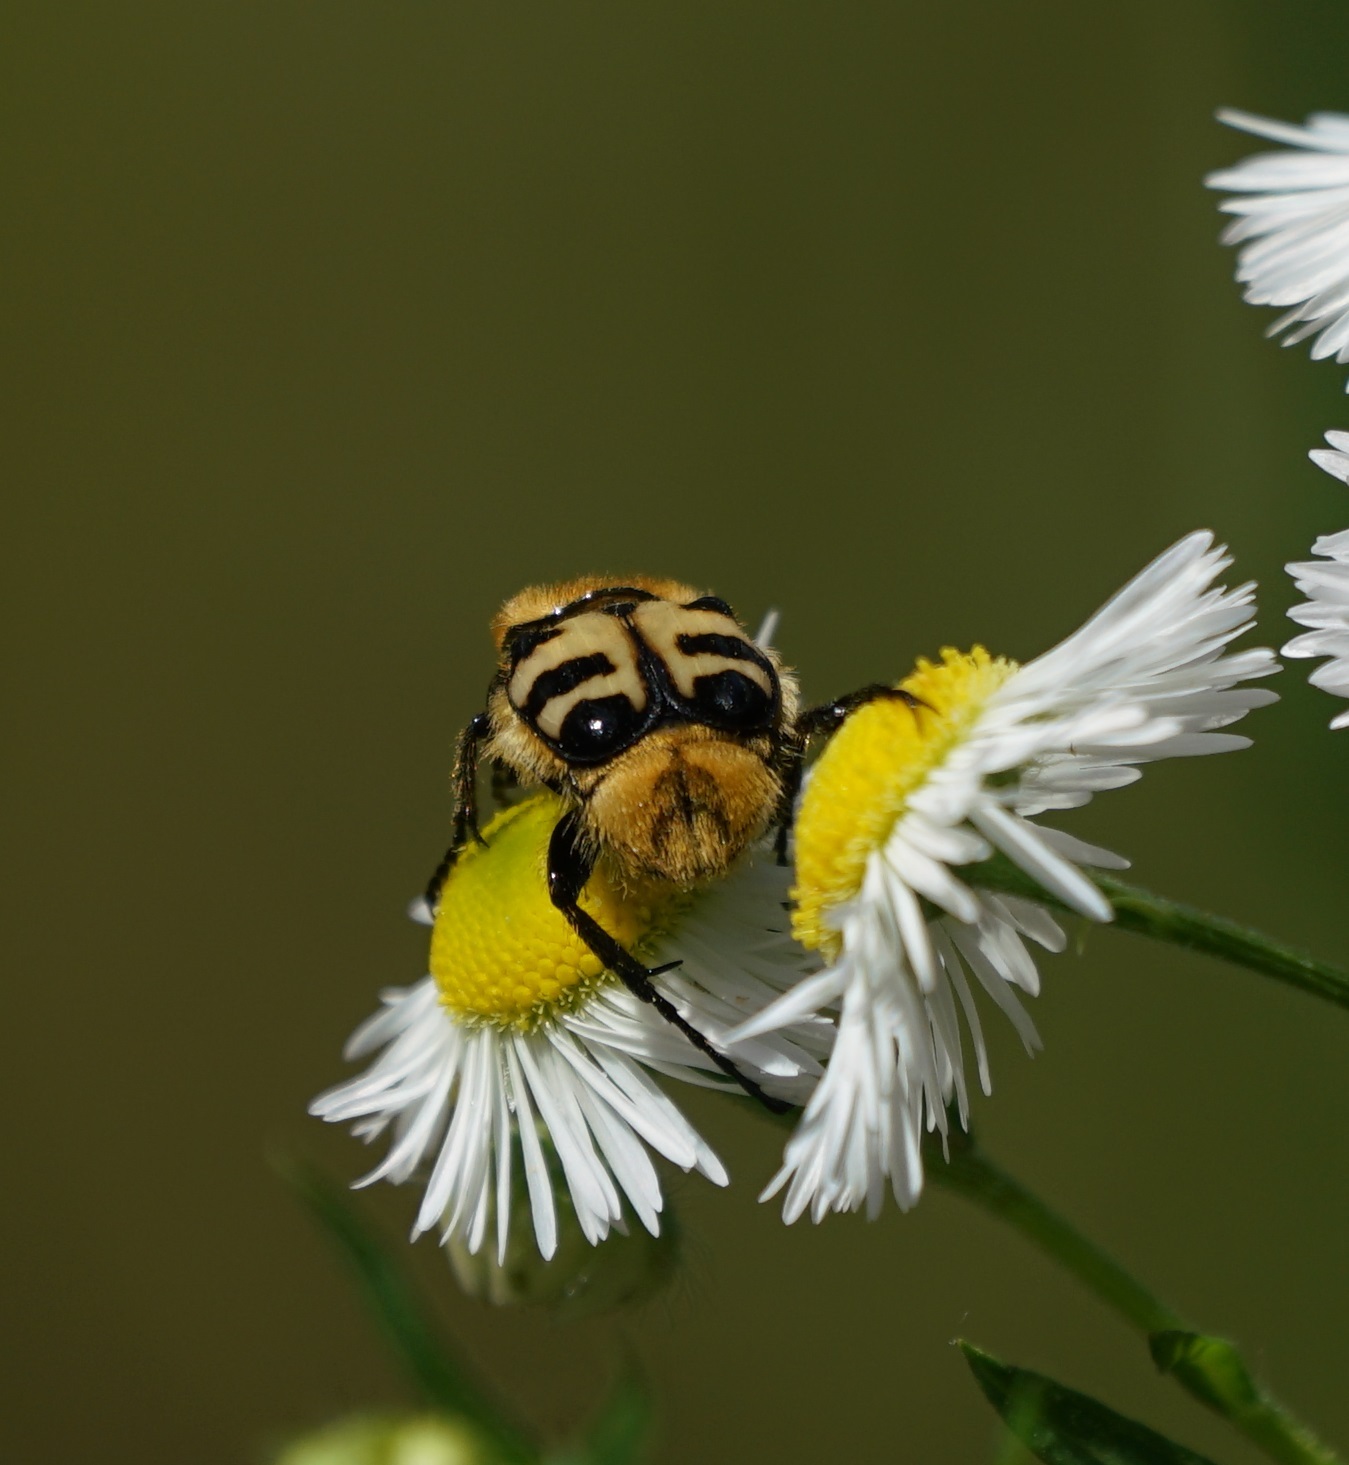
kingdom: Animalia
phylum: Arthropoda
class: Insecta
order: Coleoptera
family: Scarabaeidae
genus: Trichius
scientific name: Trichius gallicus
